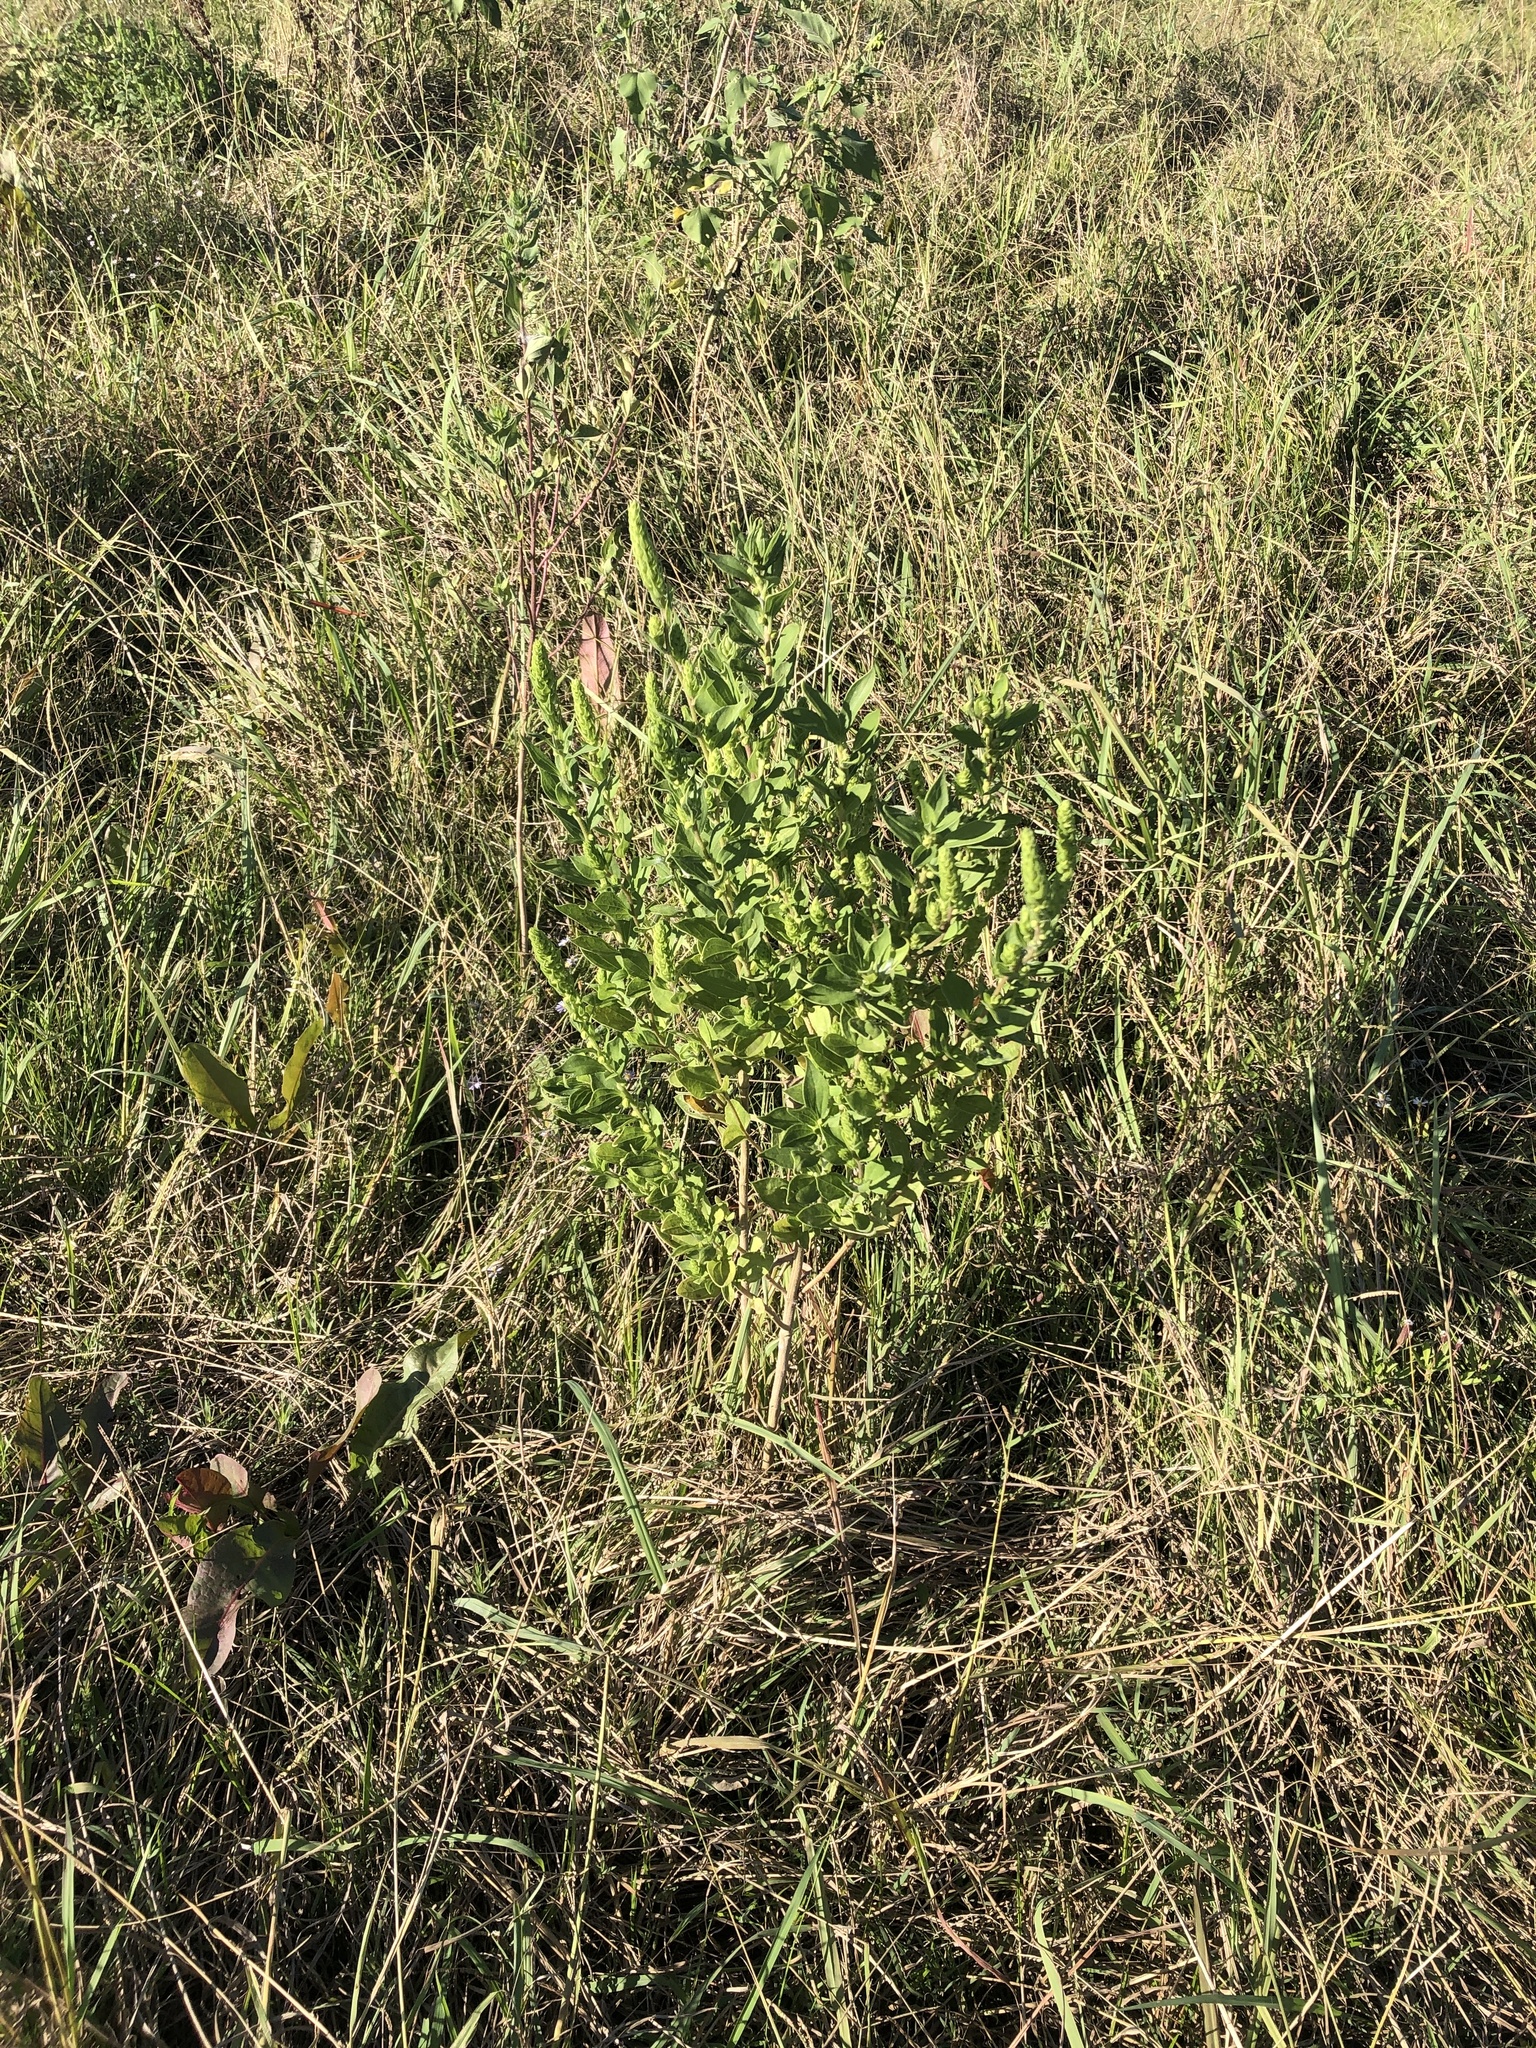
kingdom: Plantae
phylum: Tracheophyta
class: Magnoliopsida
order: Asterales
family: Asteraceae
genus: Iva
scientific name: Iva annua
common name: Marsh-elder
